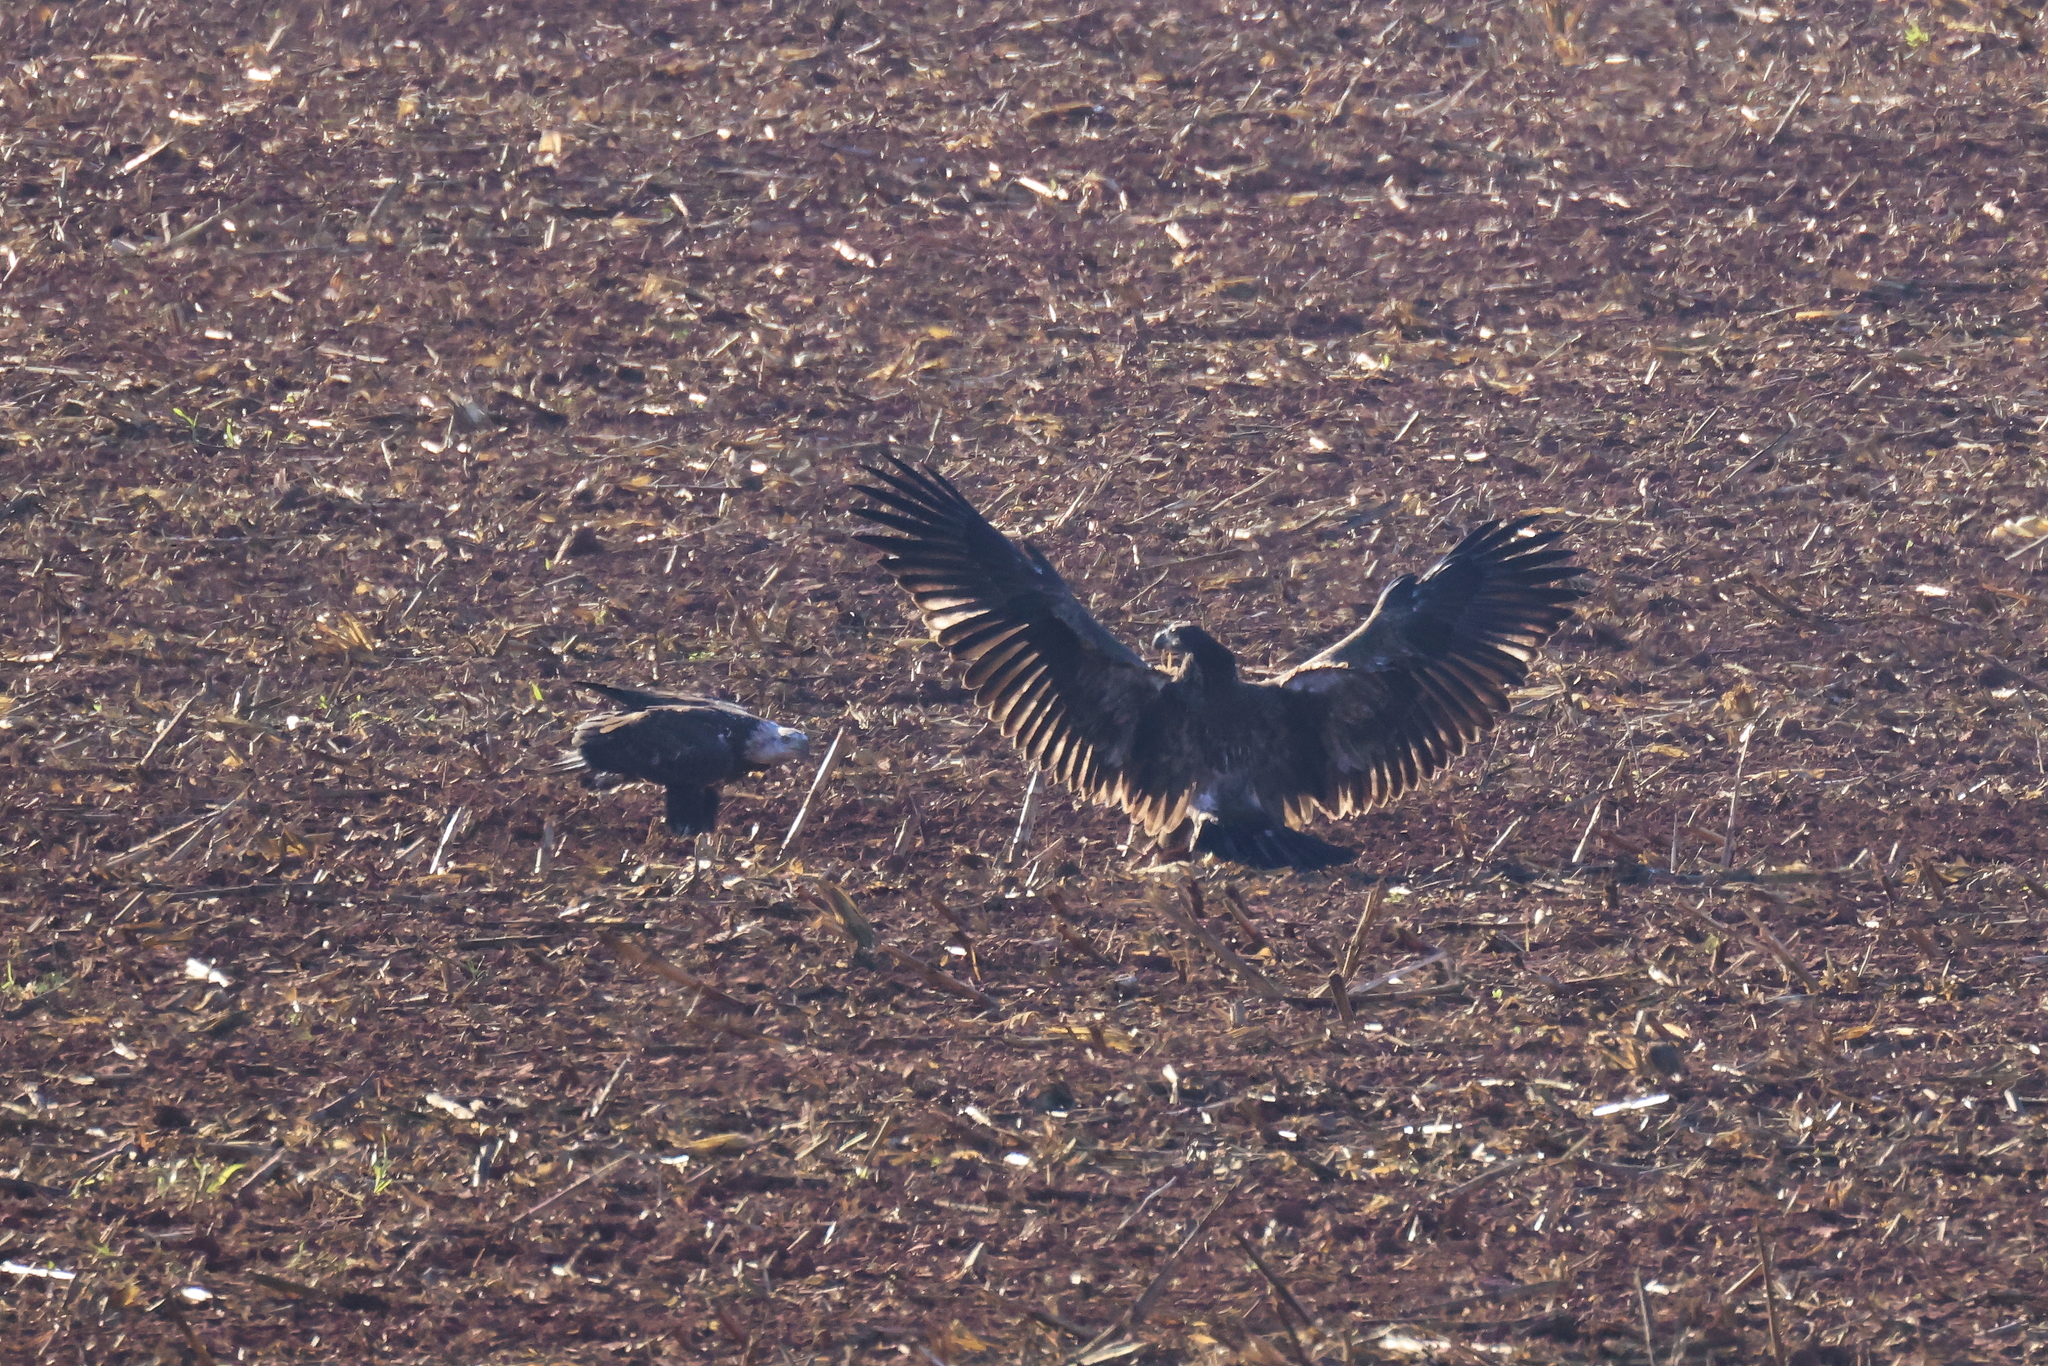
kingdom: Animalia
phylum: Chordata
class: Aves
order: Accipitriformes
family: Accipitridae
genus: Haliaeetus
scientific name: Haliaeetus leucocephalus
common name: Bald eagle
